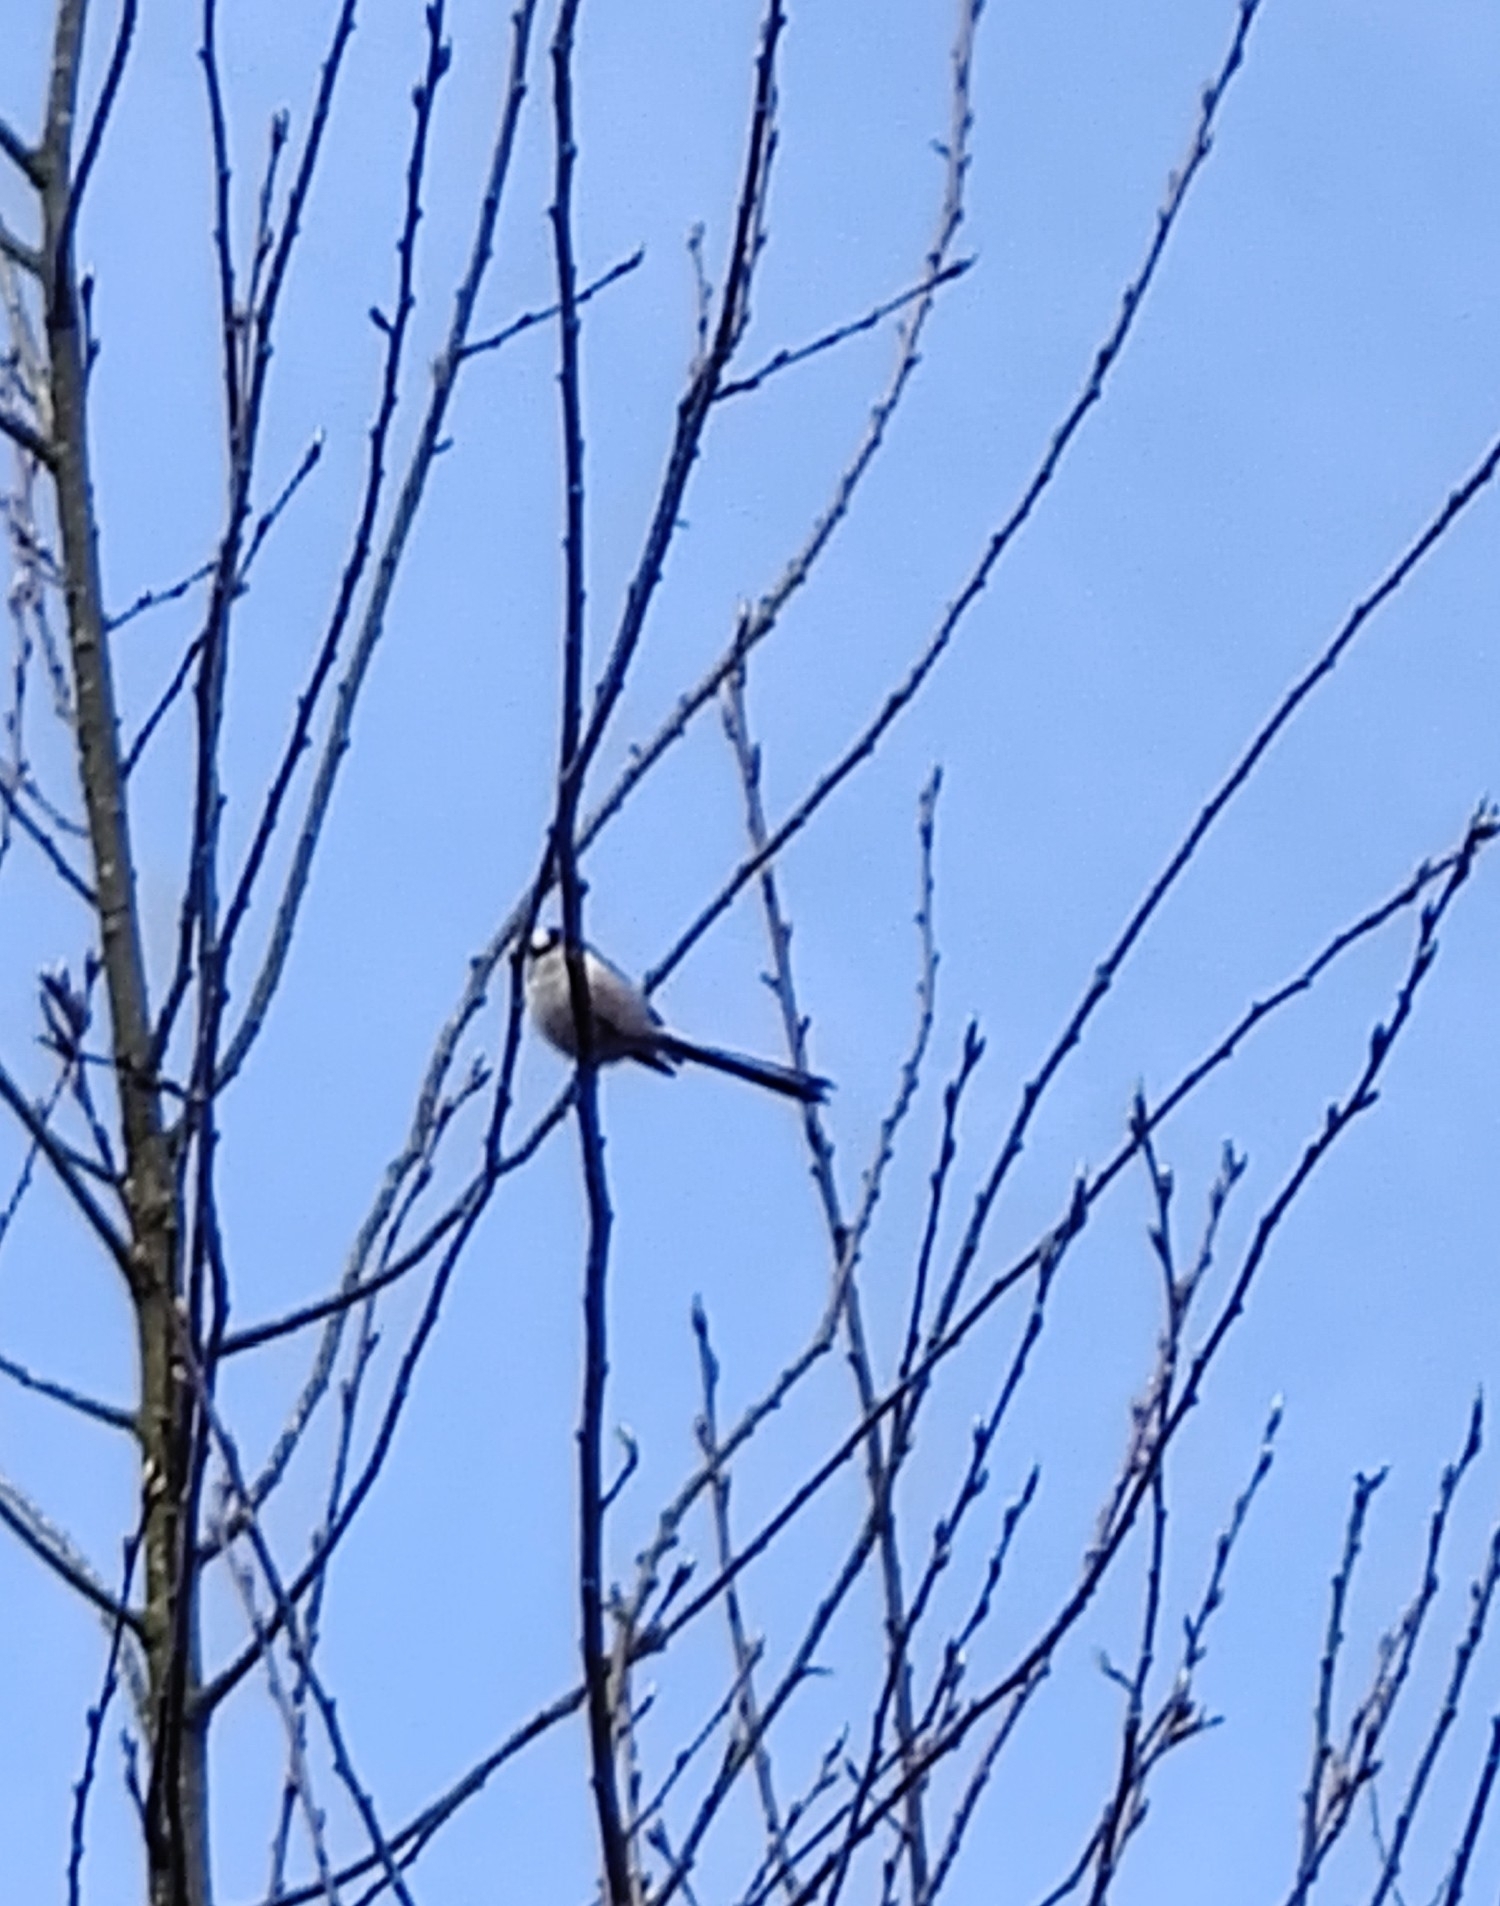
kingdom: Animalia
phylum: Chordata
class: Aves
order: Passeriformes
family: Aegithalidae
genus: Aegithalos
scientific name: Aegithalos caudatus
